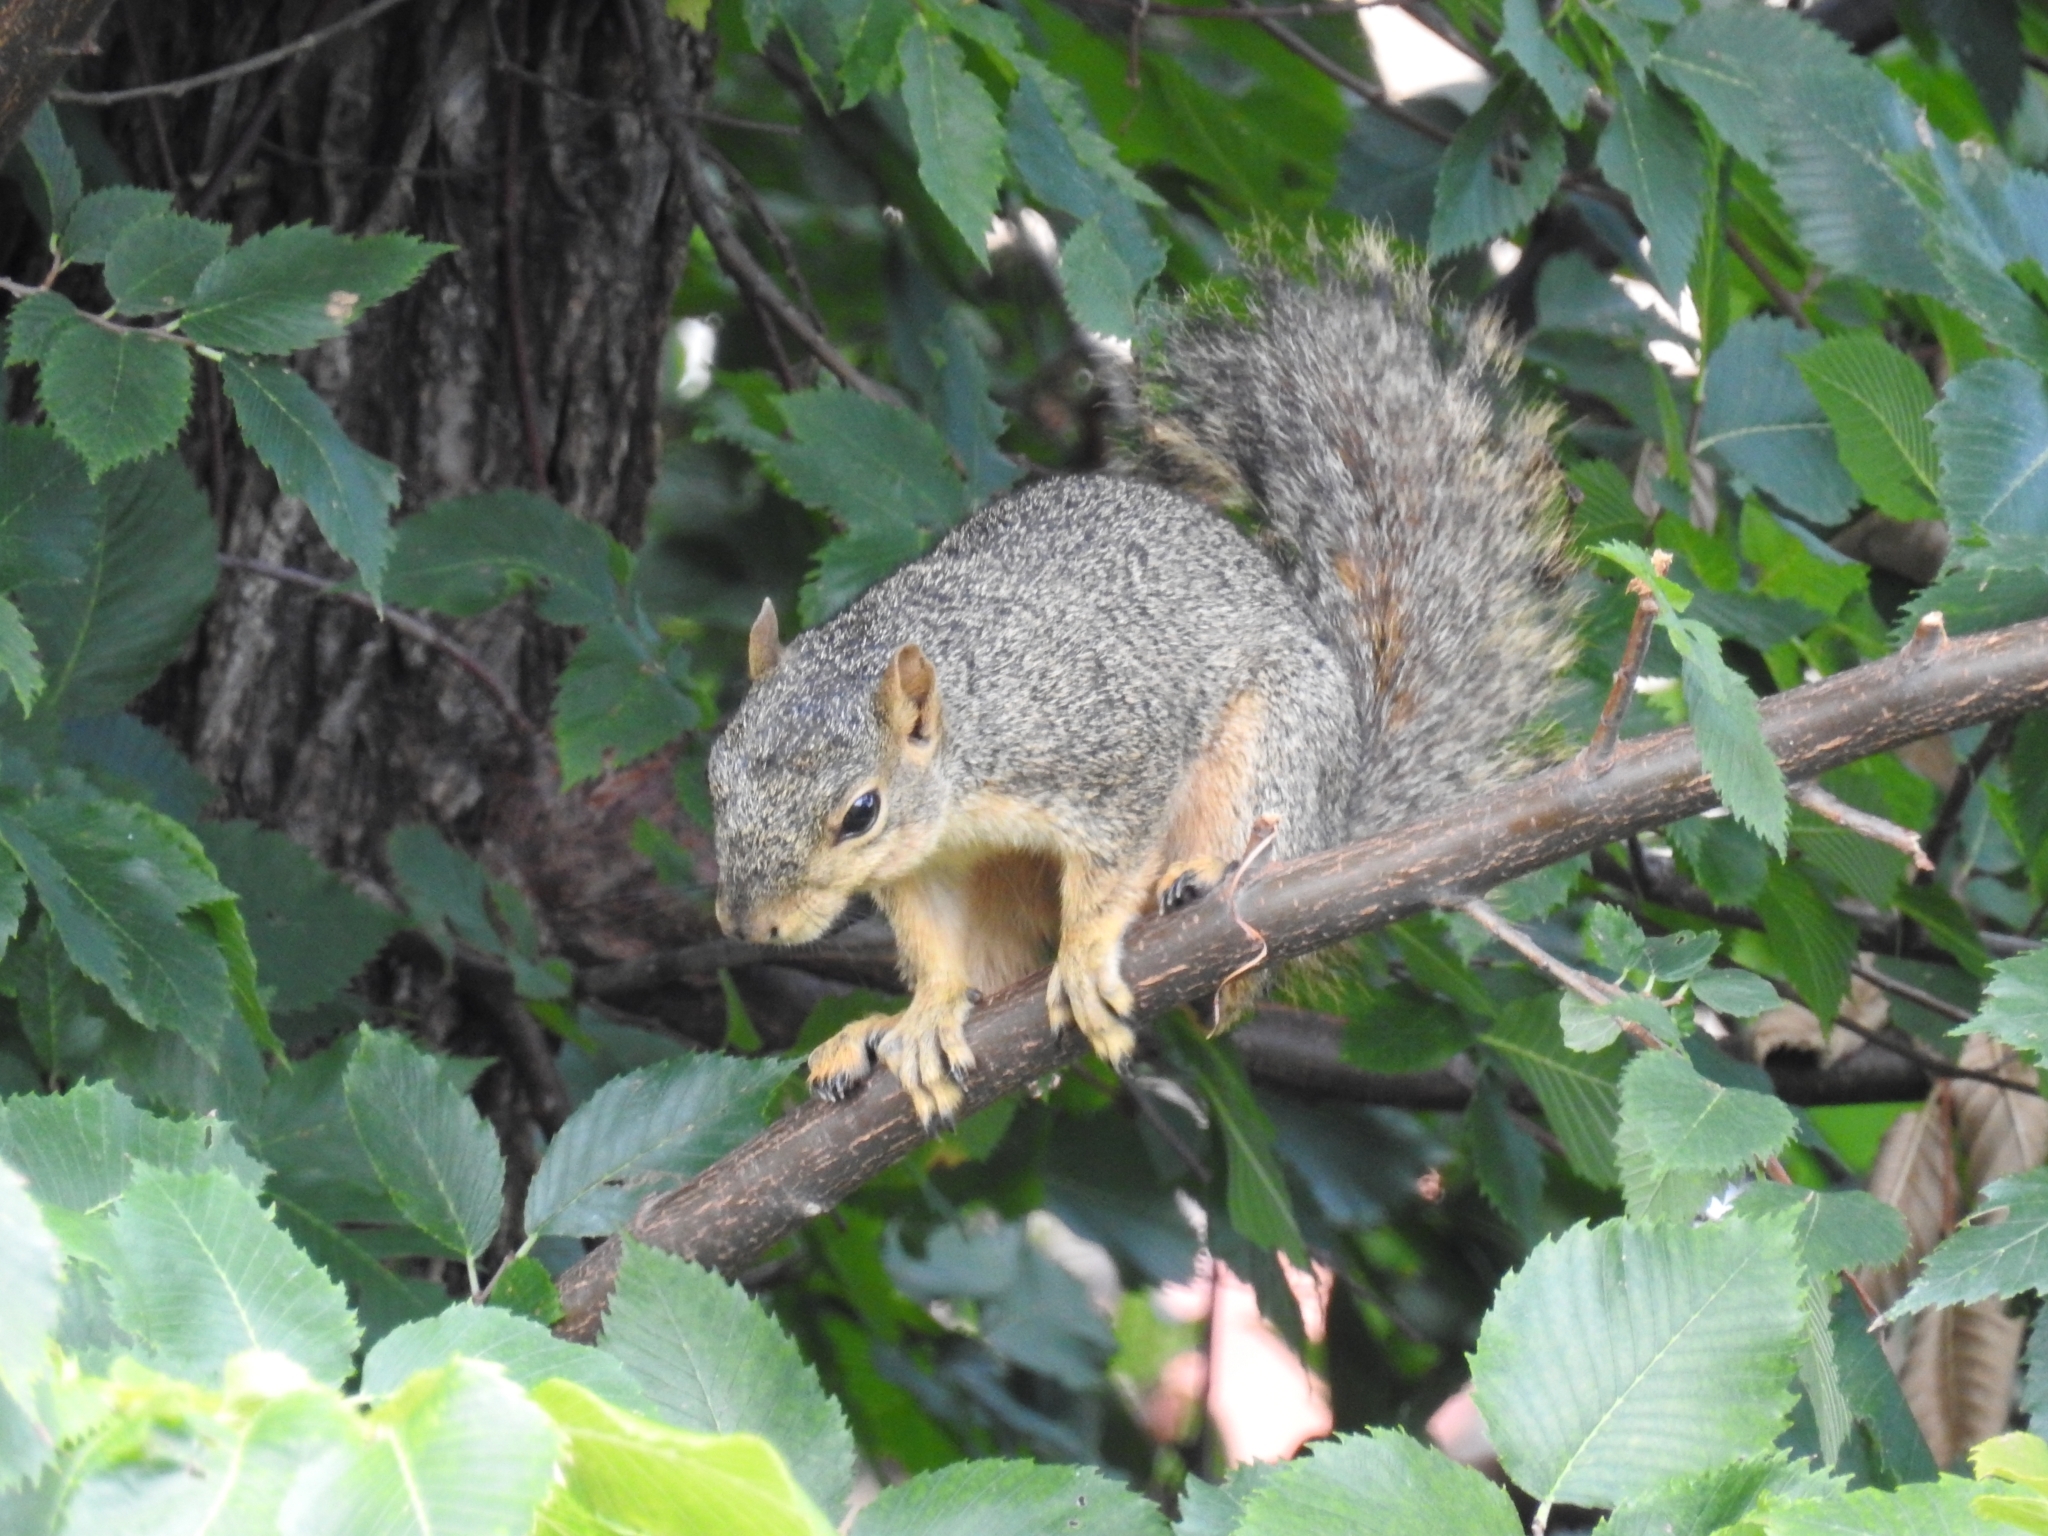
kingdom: Animalia
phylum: Chordata
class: Mammalia
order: Rodentia
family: Sciuridae
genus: Sciurus
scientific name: Sciurus niger
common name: Fox squirrel
